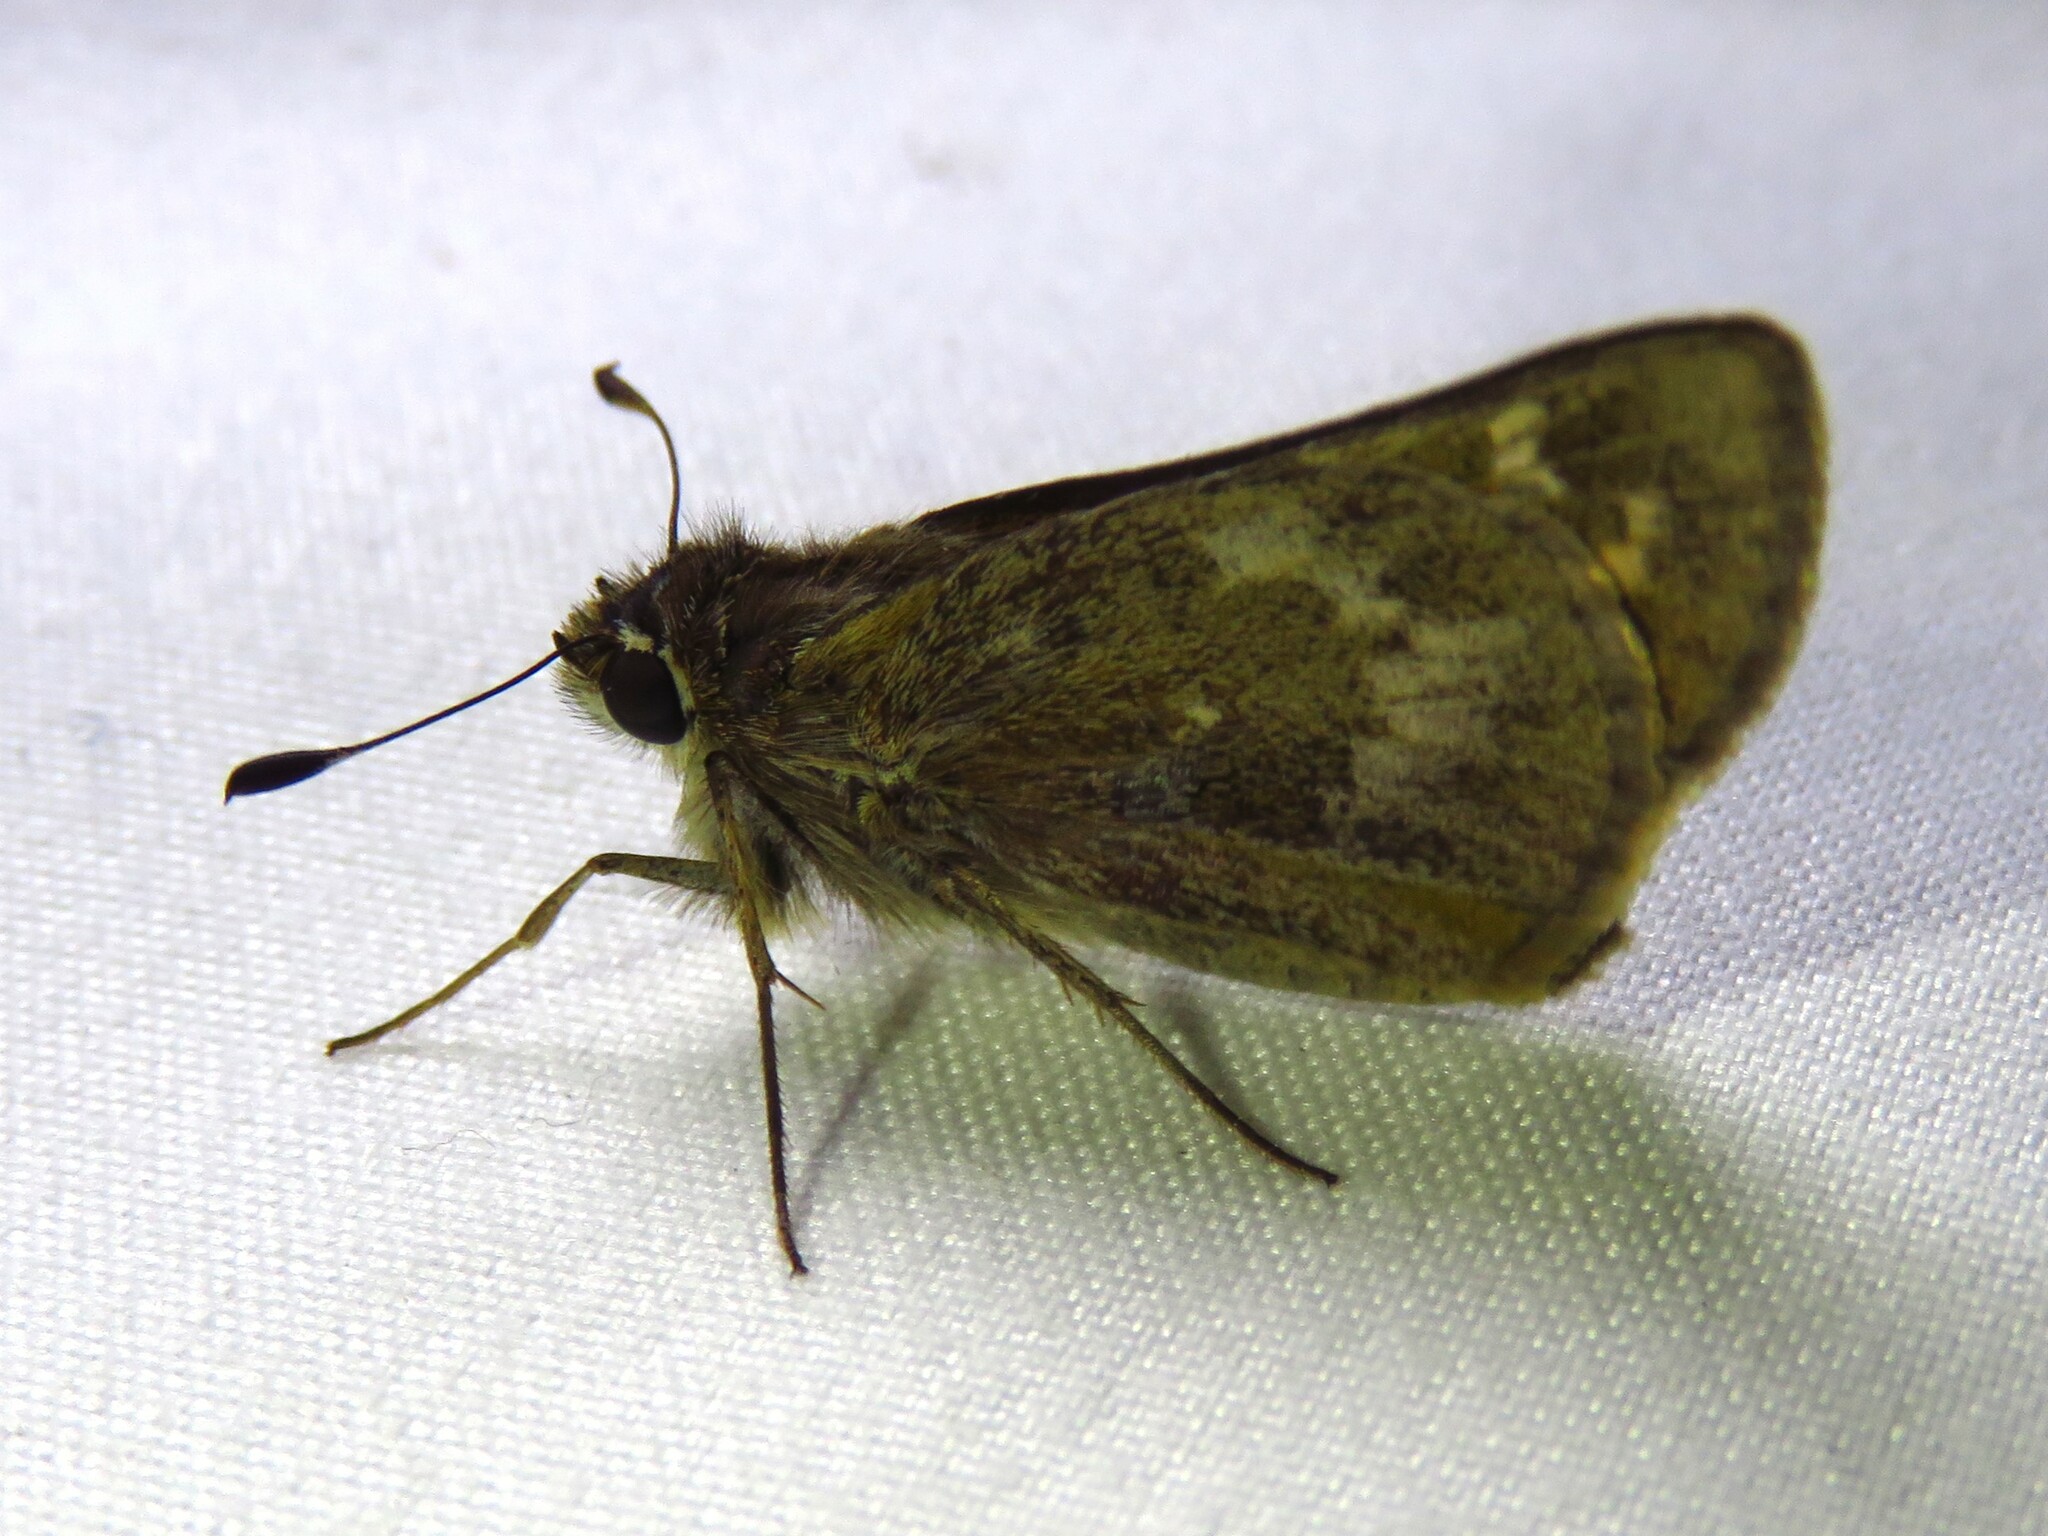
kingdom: Animalia
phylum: Arthropoda
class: Insecta
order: Lepidoptera
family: Hesperiidae
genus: Atalopedes
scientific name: Atalopedes
